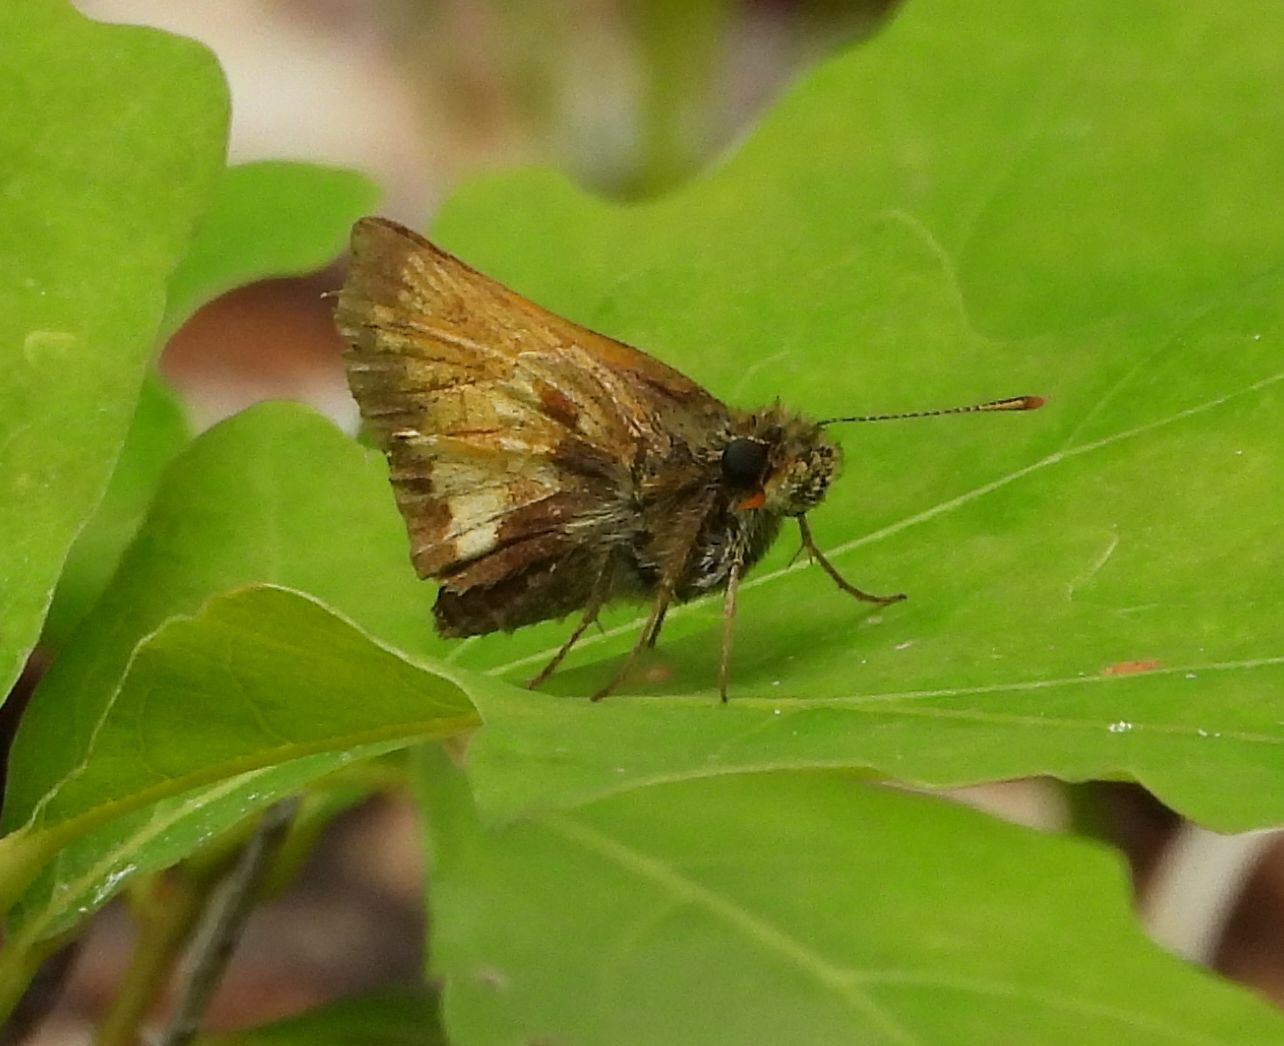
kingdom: Animalia
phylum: Arthropoda
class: Insecta
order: Lepidoptera
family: Hesperiidae
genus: Lon
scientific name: Lon hobomok
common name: Hobomok skipper
